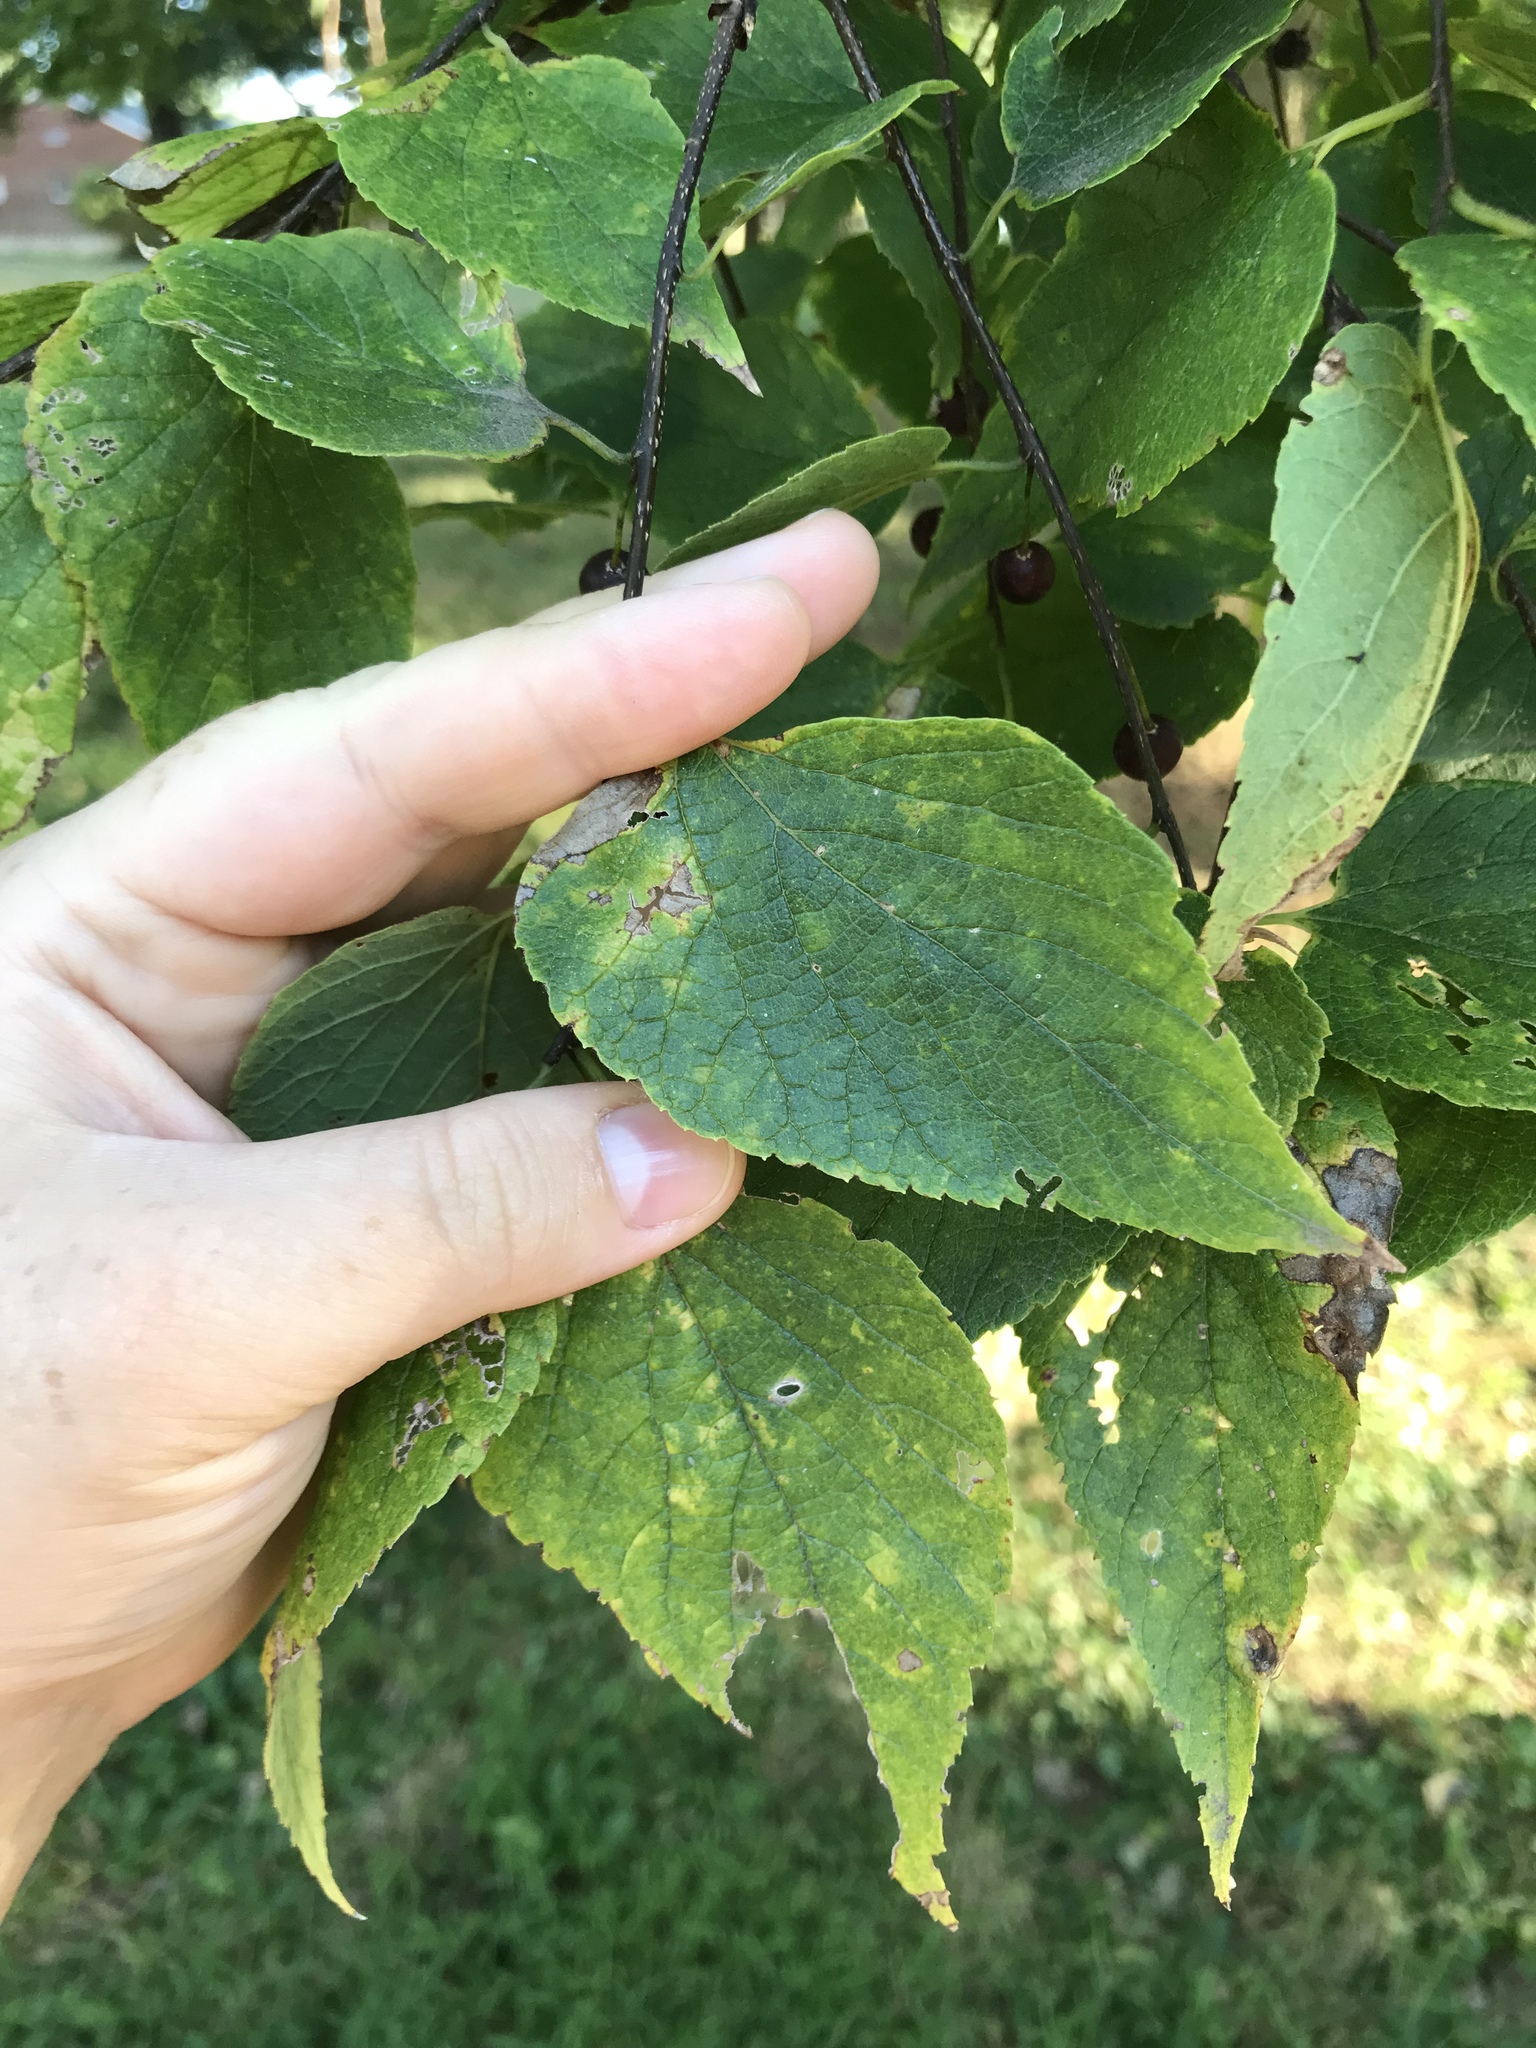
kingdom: Plantae
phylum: Tracheophyta
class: Magnoliopsida
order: Rosales
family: Cannabaceae
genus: Celtis
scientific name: Celtis occidentalis
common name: Common hackberry
